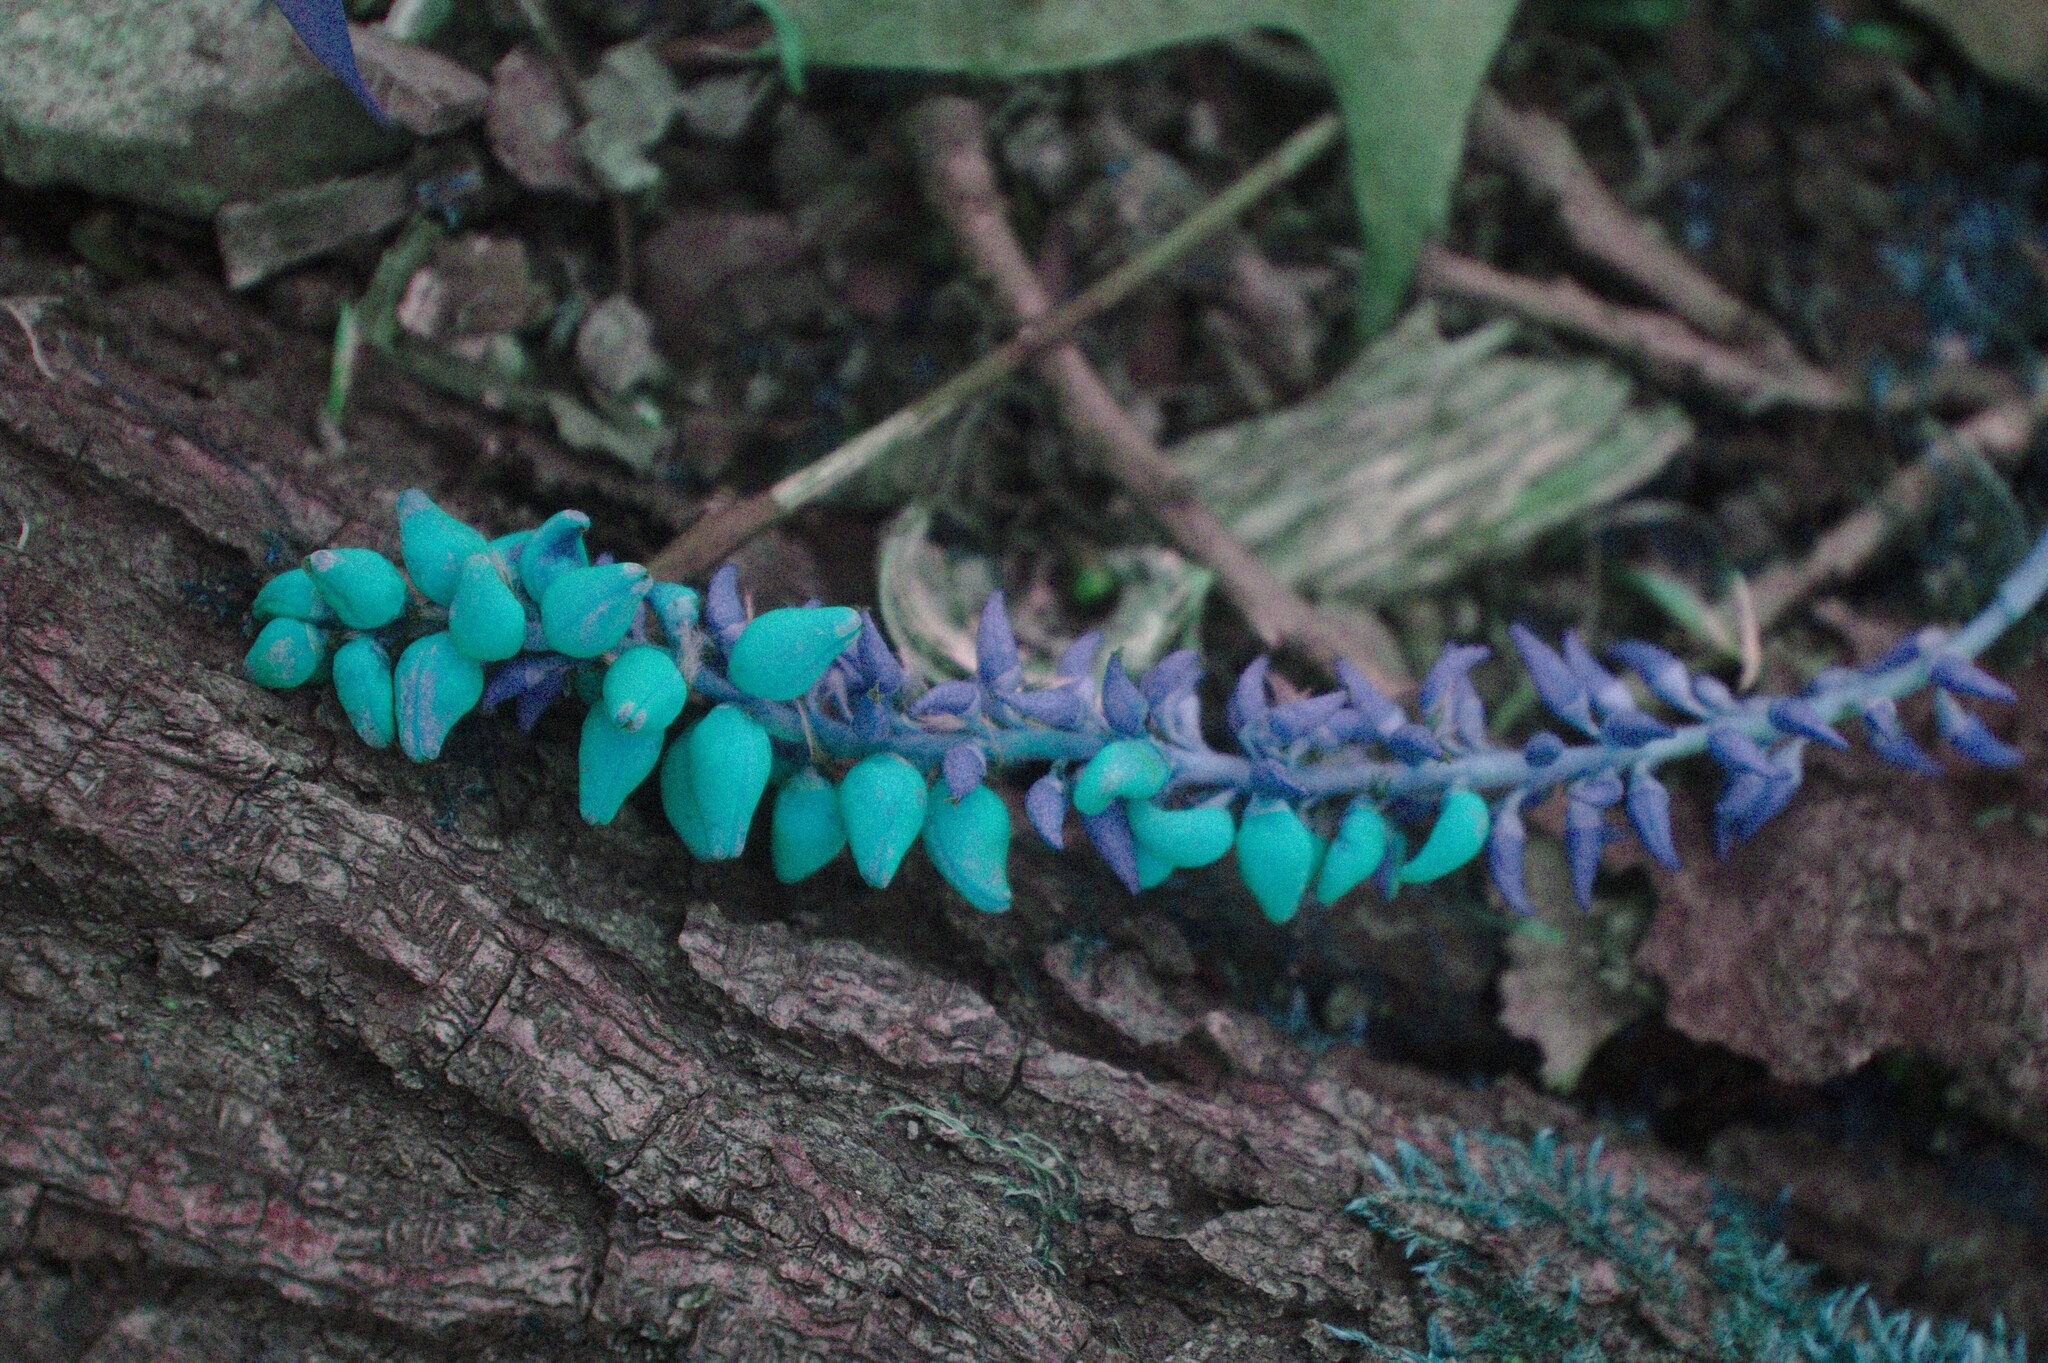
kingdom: Plantae
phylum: Tracheophyta
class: Magnoliopsida
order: Malpighiales
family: Salicaceae
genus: Populus
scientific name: Populus tremuloides
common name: Quaking aspen
